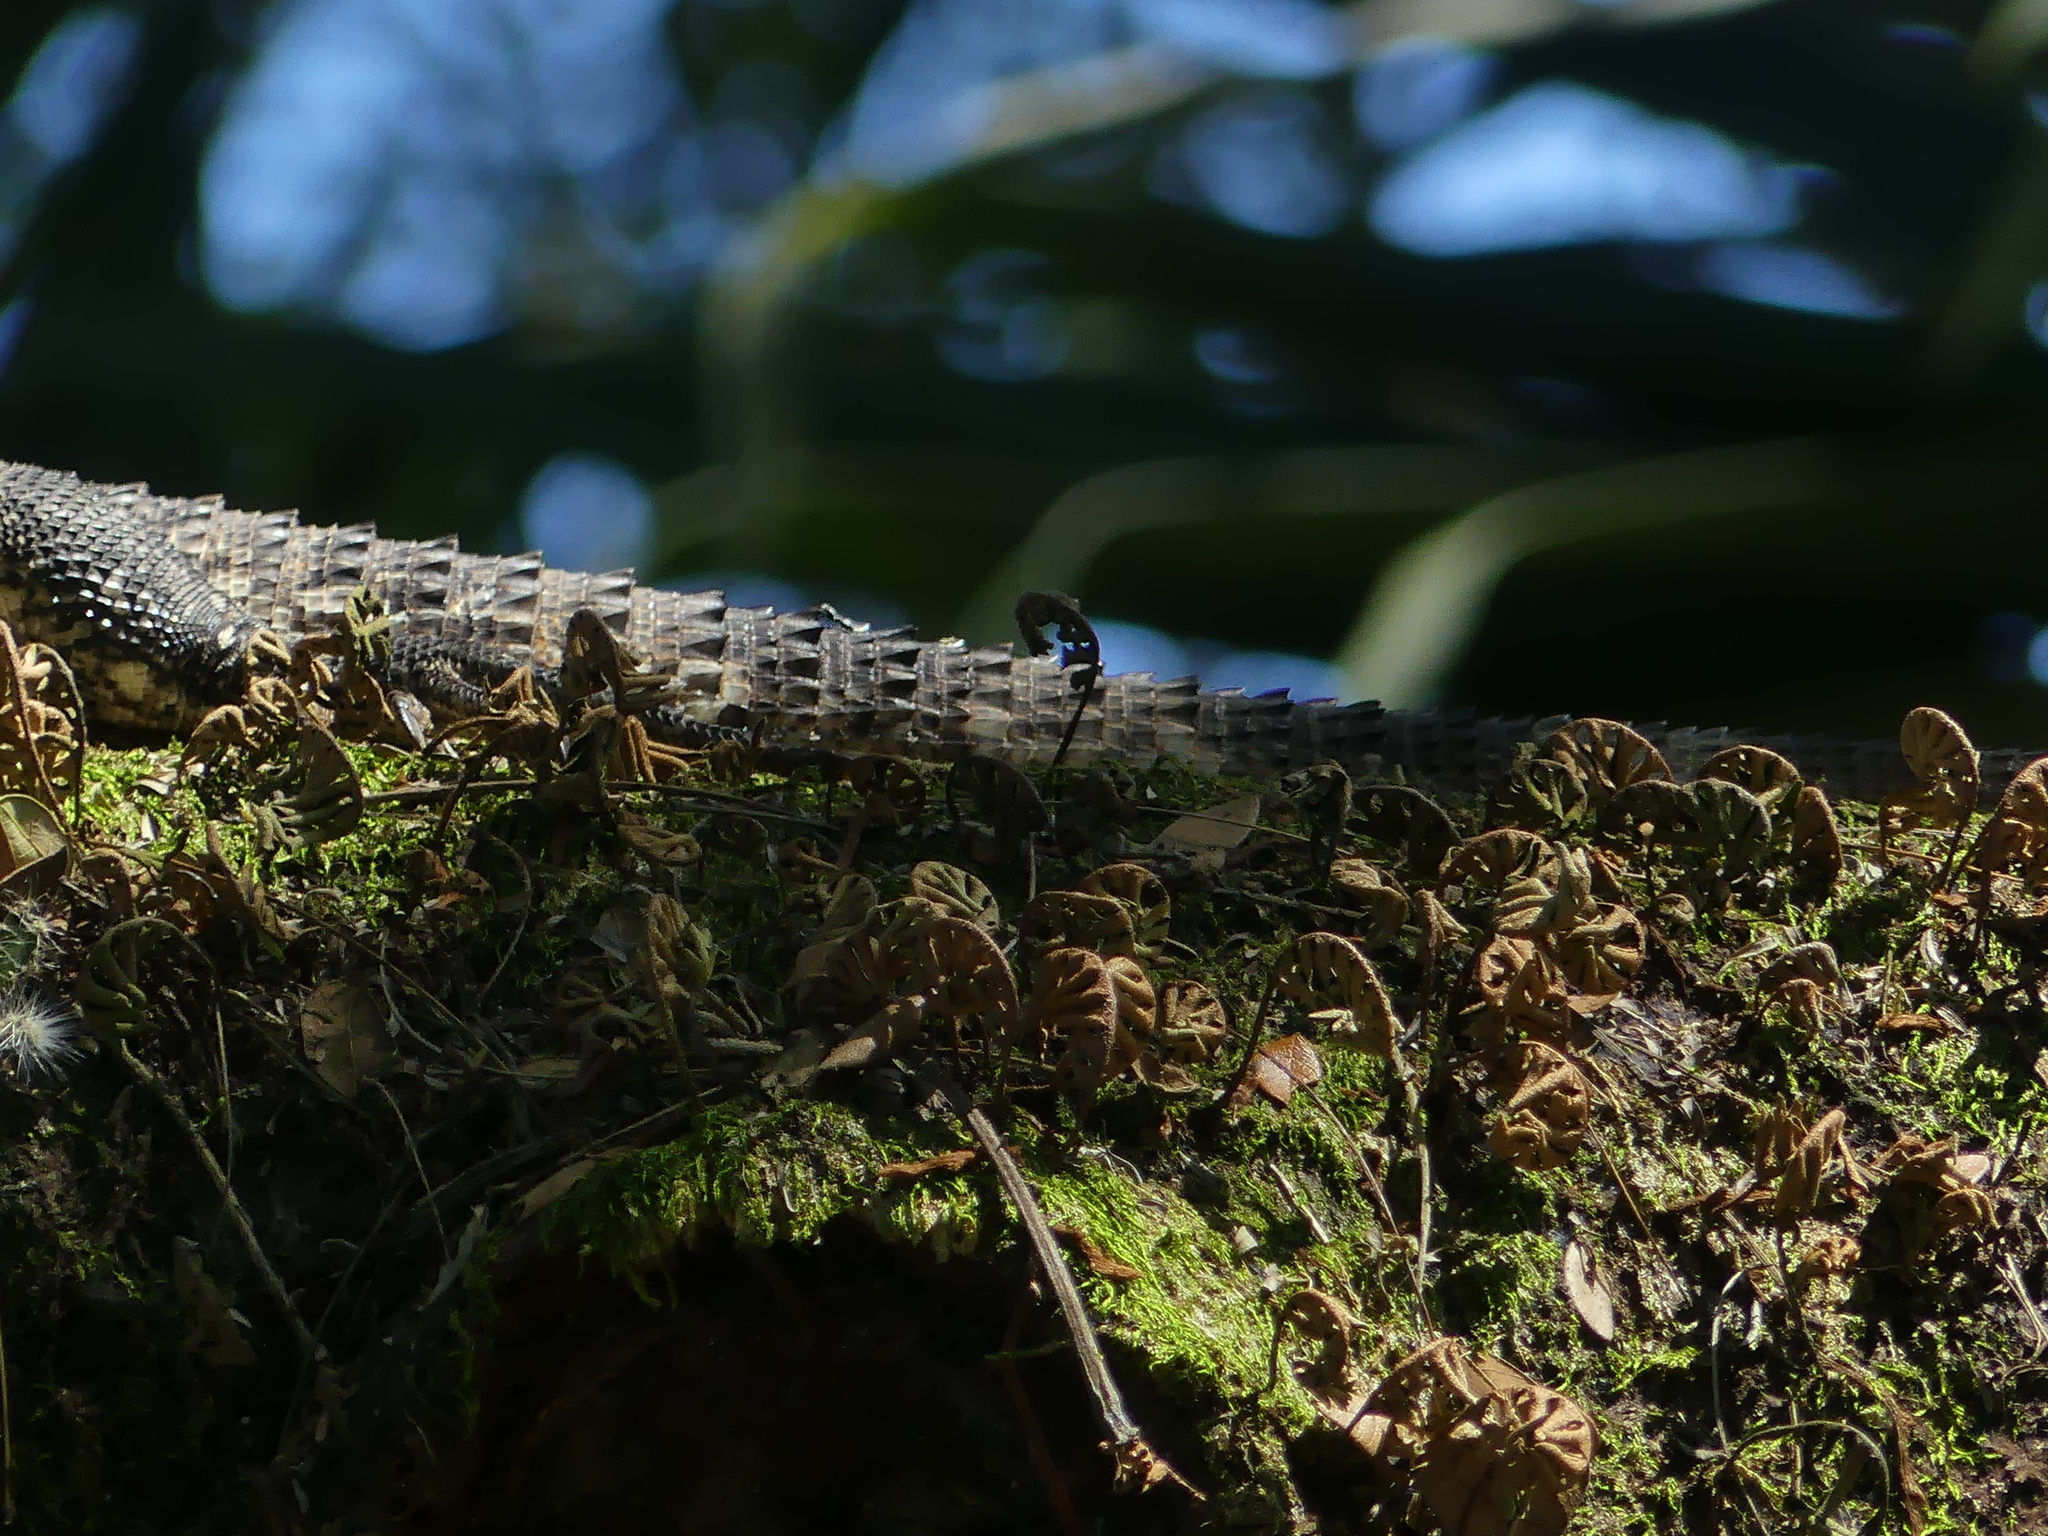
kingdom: Animalia
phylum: Chordata
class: Squamata
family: Iguanidae
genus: Ctenosaura
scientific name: Ctenosaura similis
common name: Black spiny-tailed iguana
